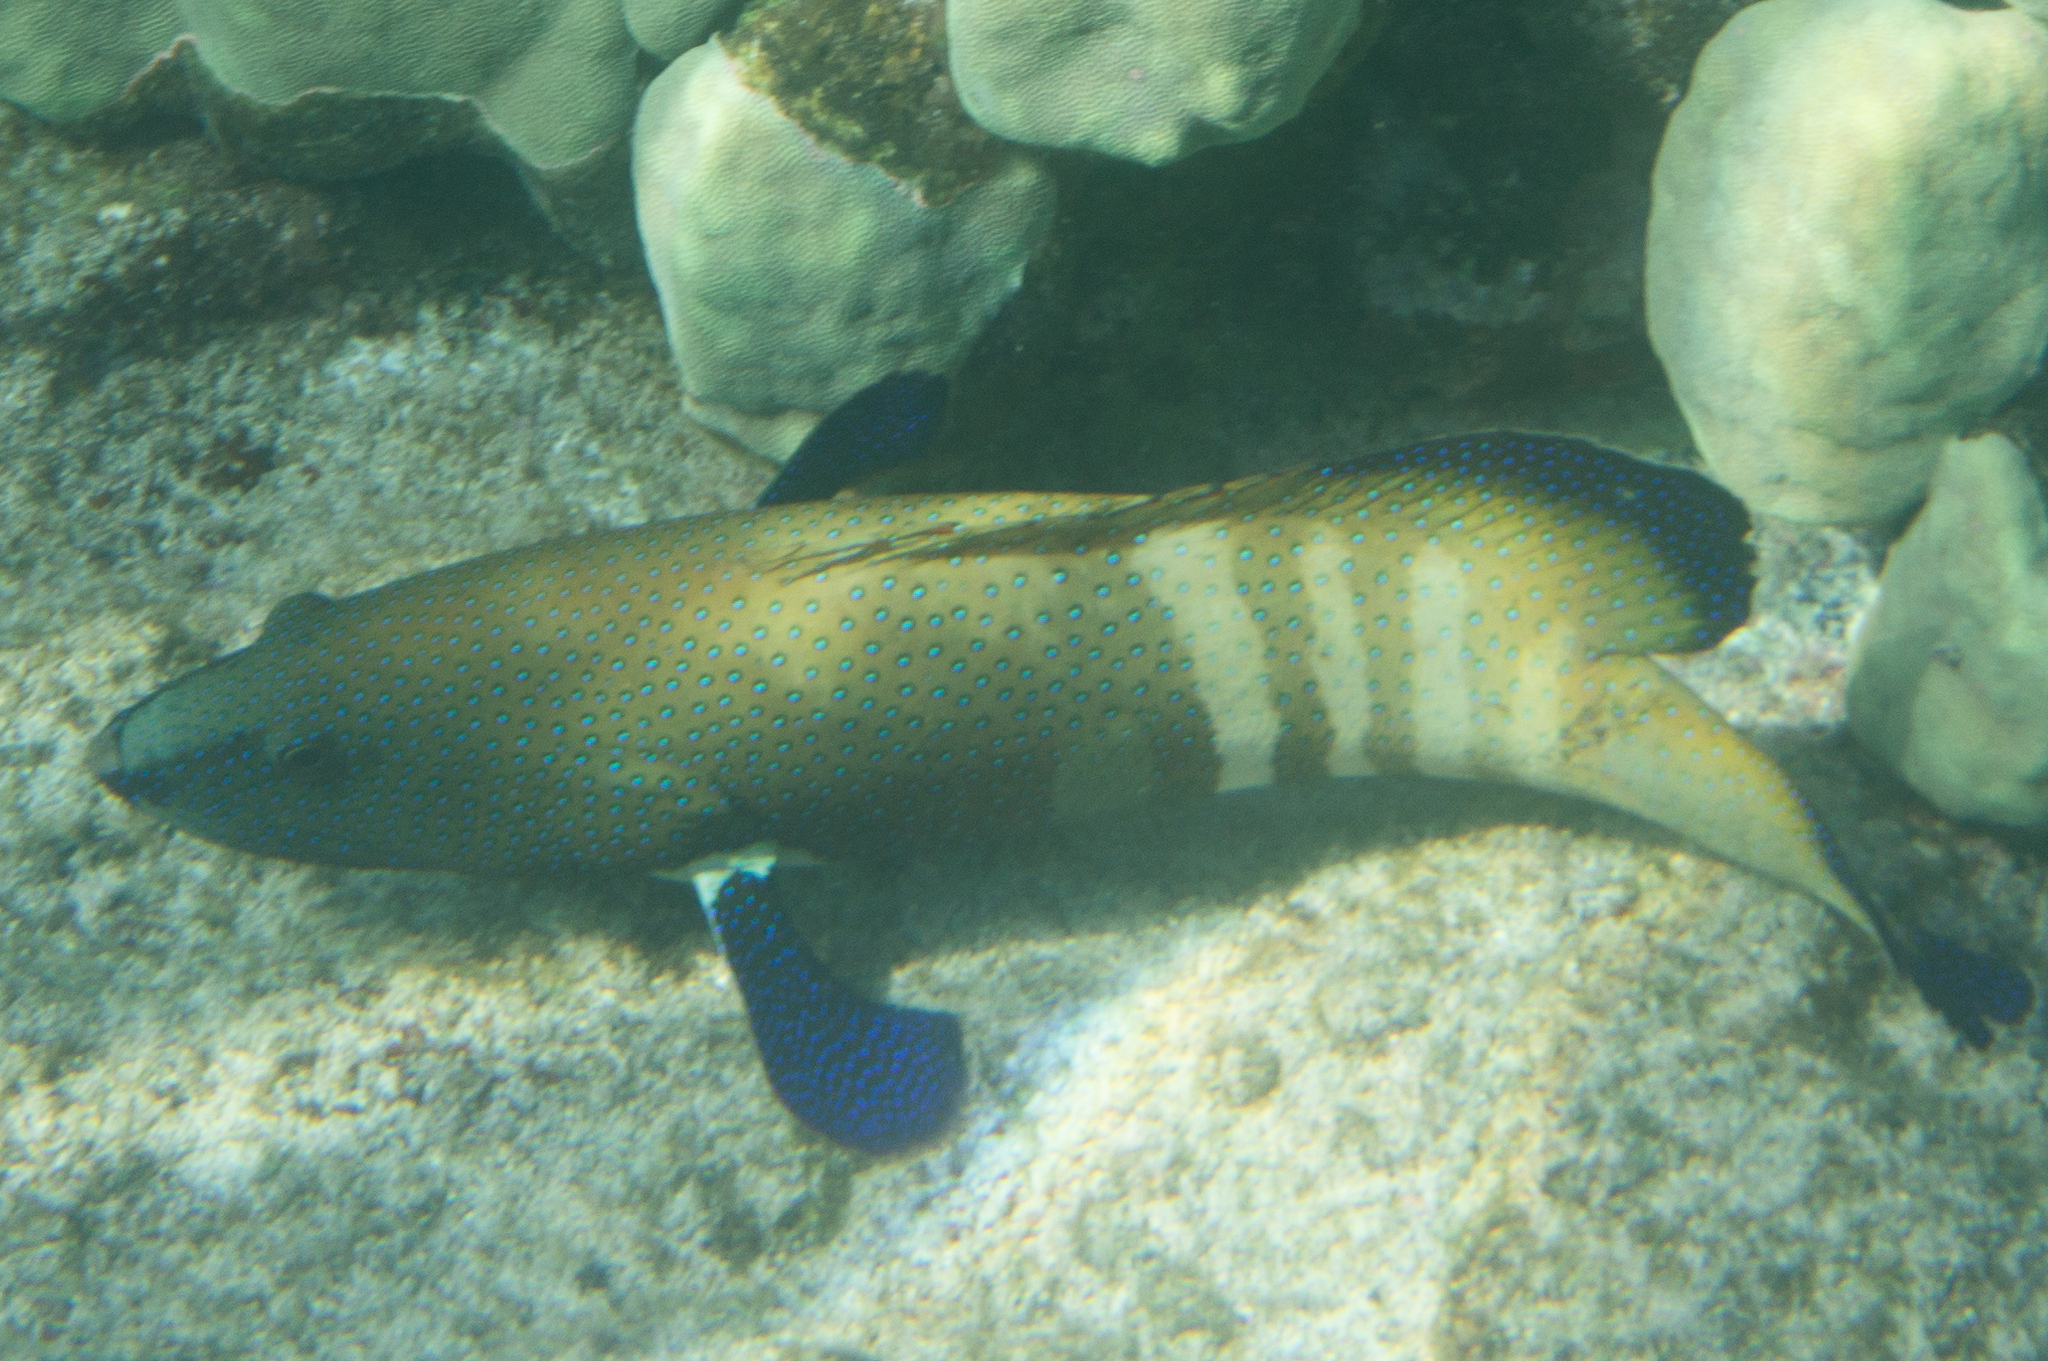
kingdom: Animalia
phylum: Chordata
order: Perciformes
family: Serranidae
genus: Cephalopholis
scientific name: Cephalopholis argus
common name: Peacock grouper
